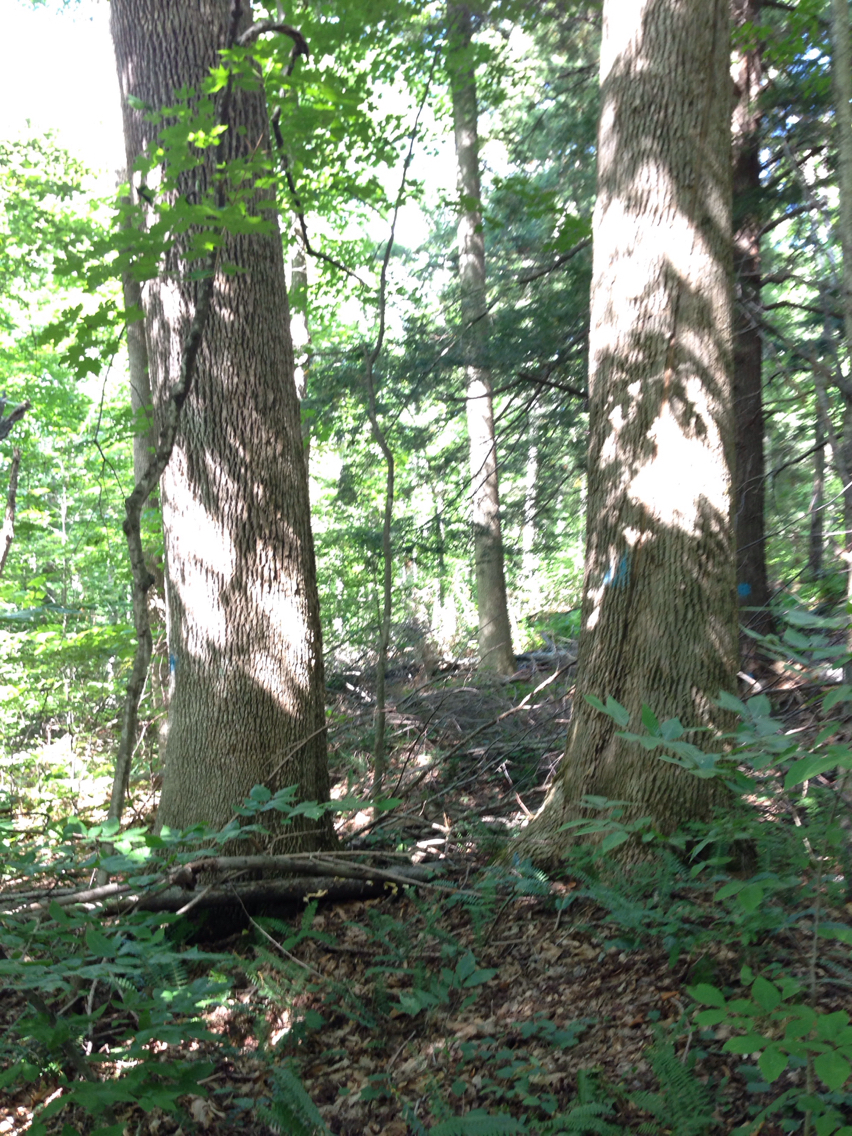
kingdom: Plantae
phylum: Tracheophyta
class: Magnoliopsida
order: Lamiales
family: Oleaceae
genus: Fraxinus
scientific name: Fraxinus americana
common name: White ash
